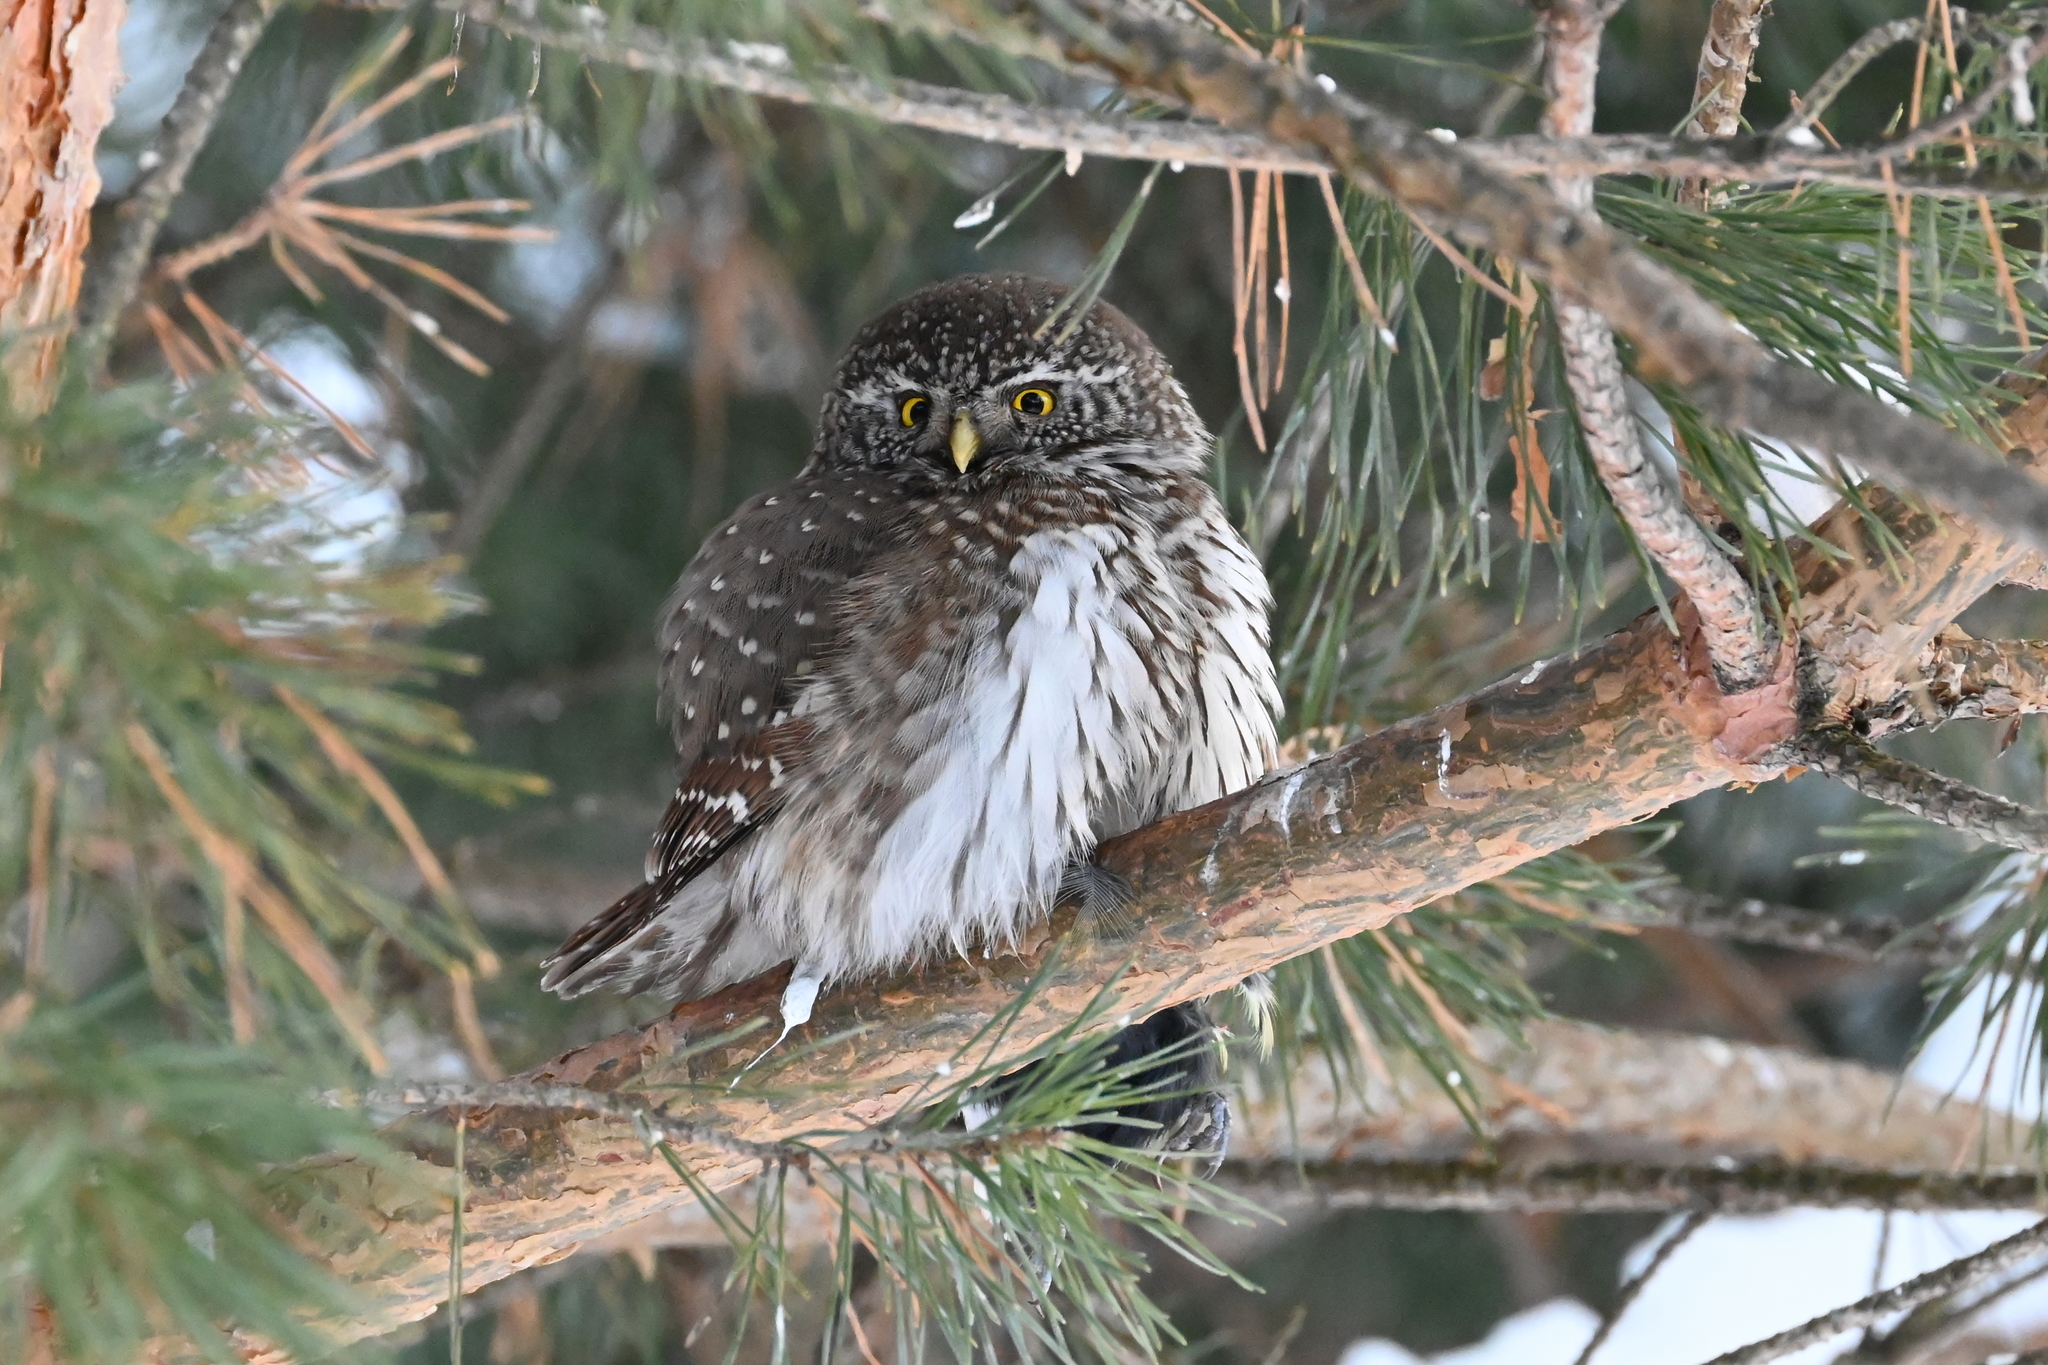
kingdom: Animalia
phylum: Chordata
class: Aves
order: Strigiformes
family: Strigidae
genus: Glaucidium
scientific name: Glaucidium passerinum
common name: Eurasian pygmy owl
